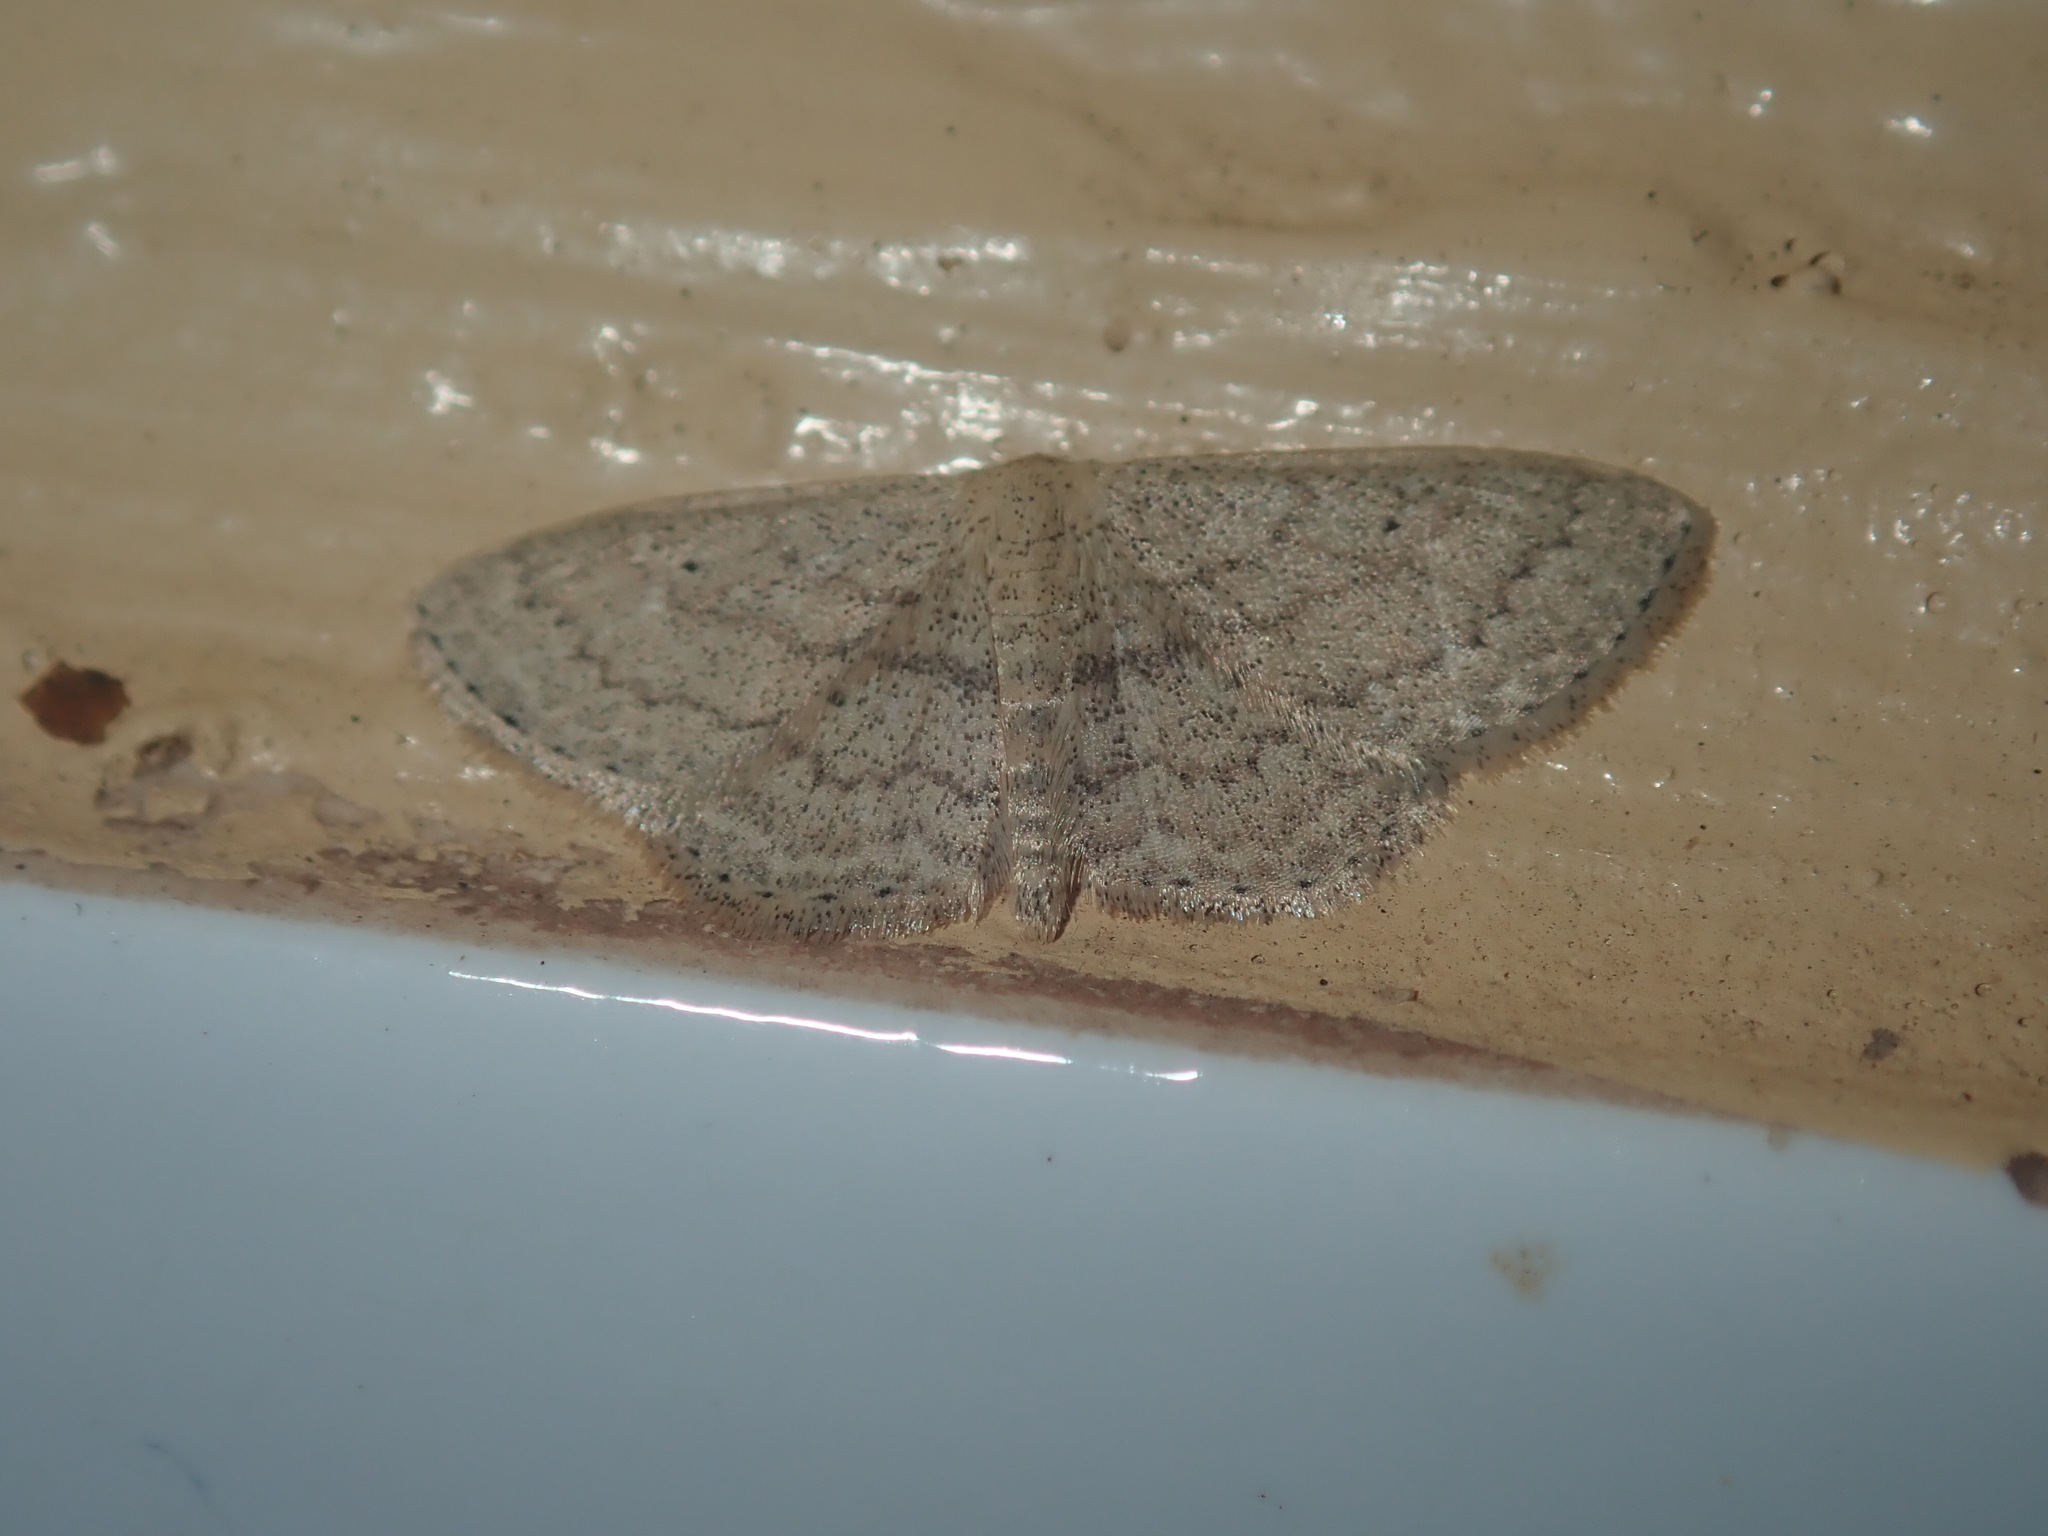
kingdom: Animalia
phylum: Arthropoda
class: Insecta
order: Lepidoptera
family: Geometridae
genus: Scopula
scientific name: Scopula hypochra
